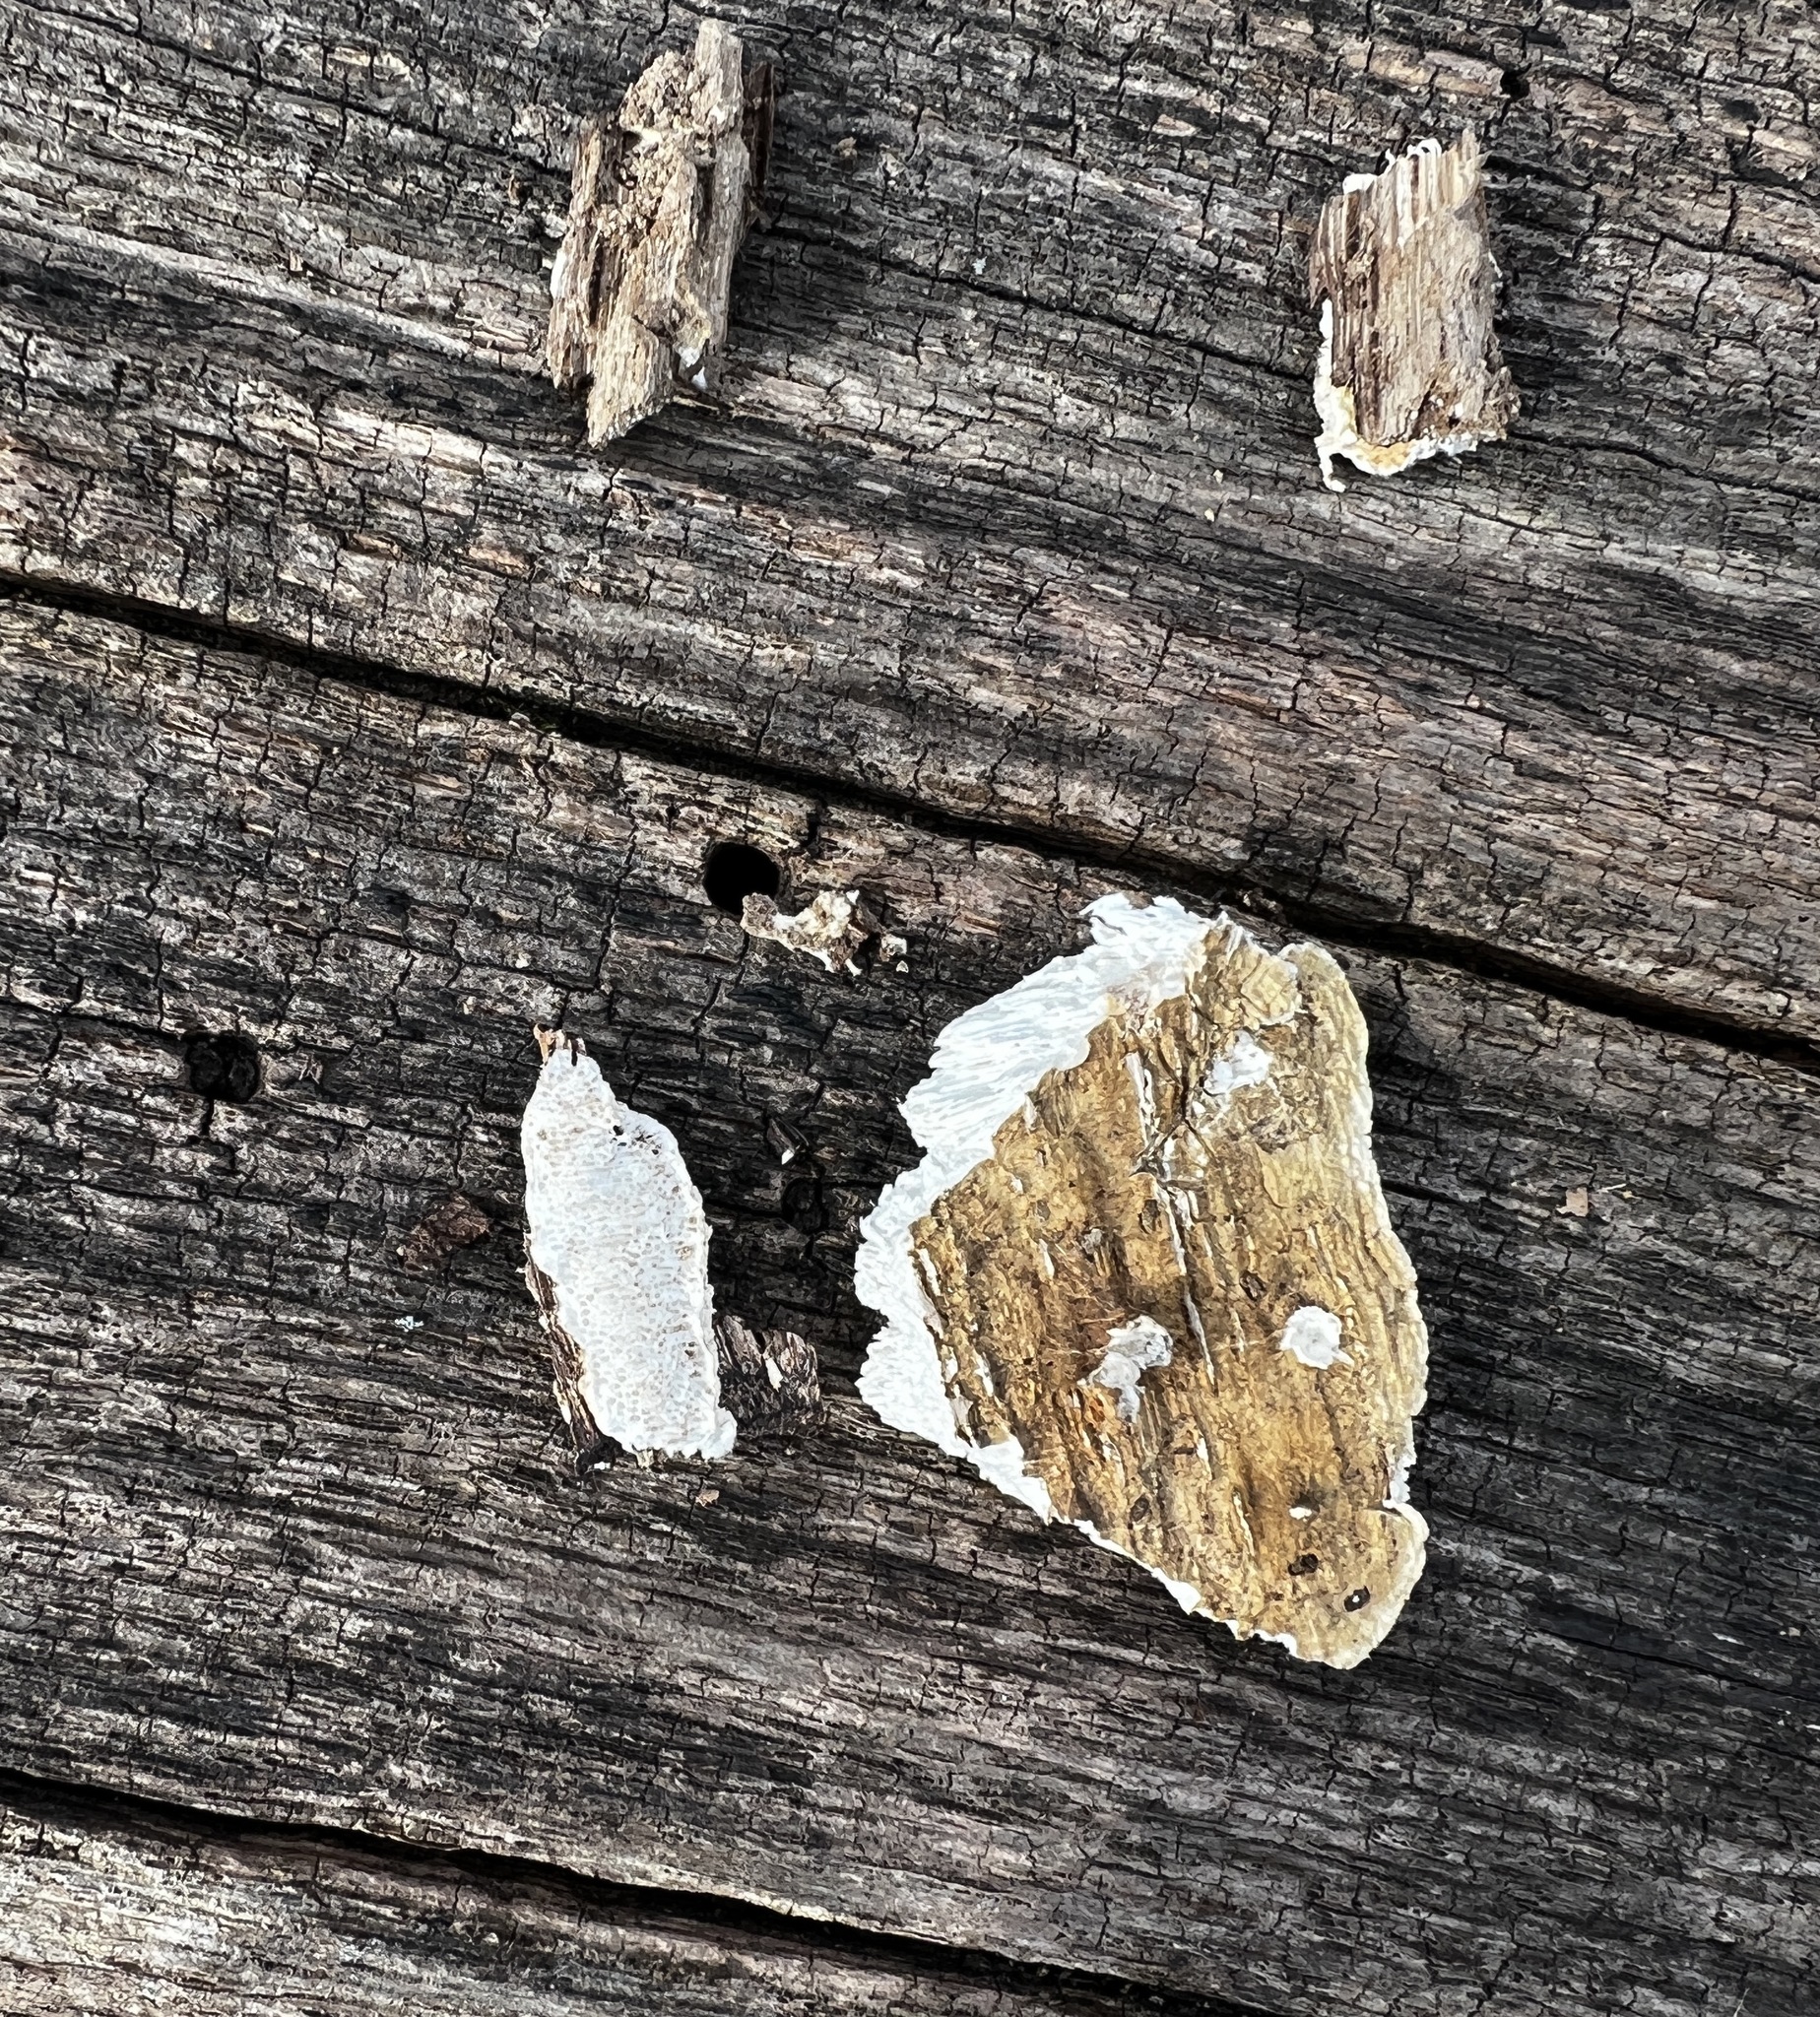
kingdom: Fungi
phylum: Basidiomycota
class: Agaricomycetes
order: Polyporales
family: Fomitopsidaceae
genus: Fomitopsis
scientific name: Fomitopsis
